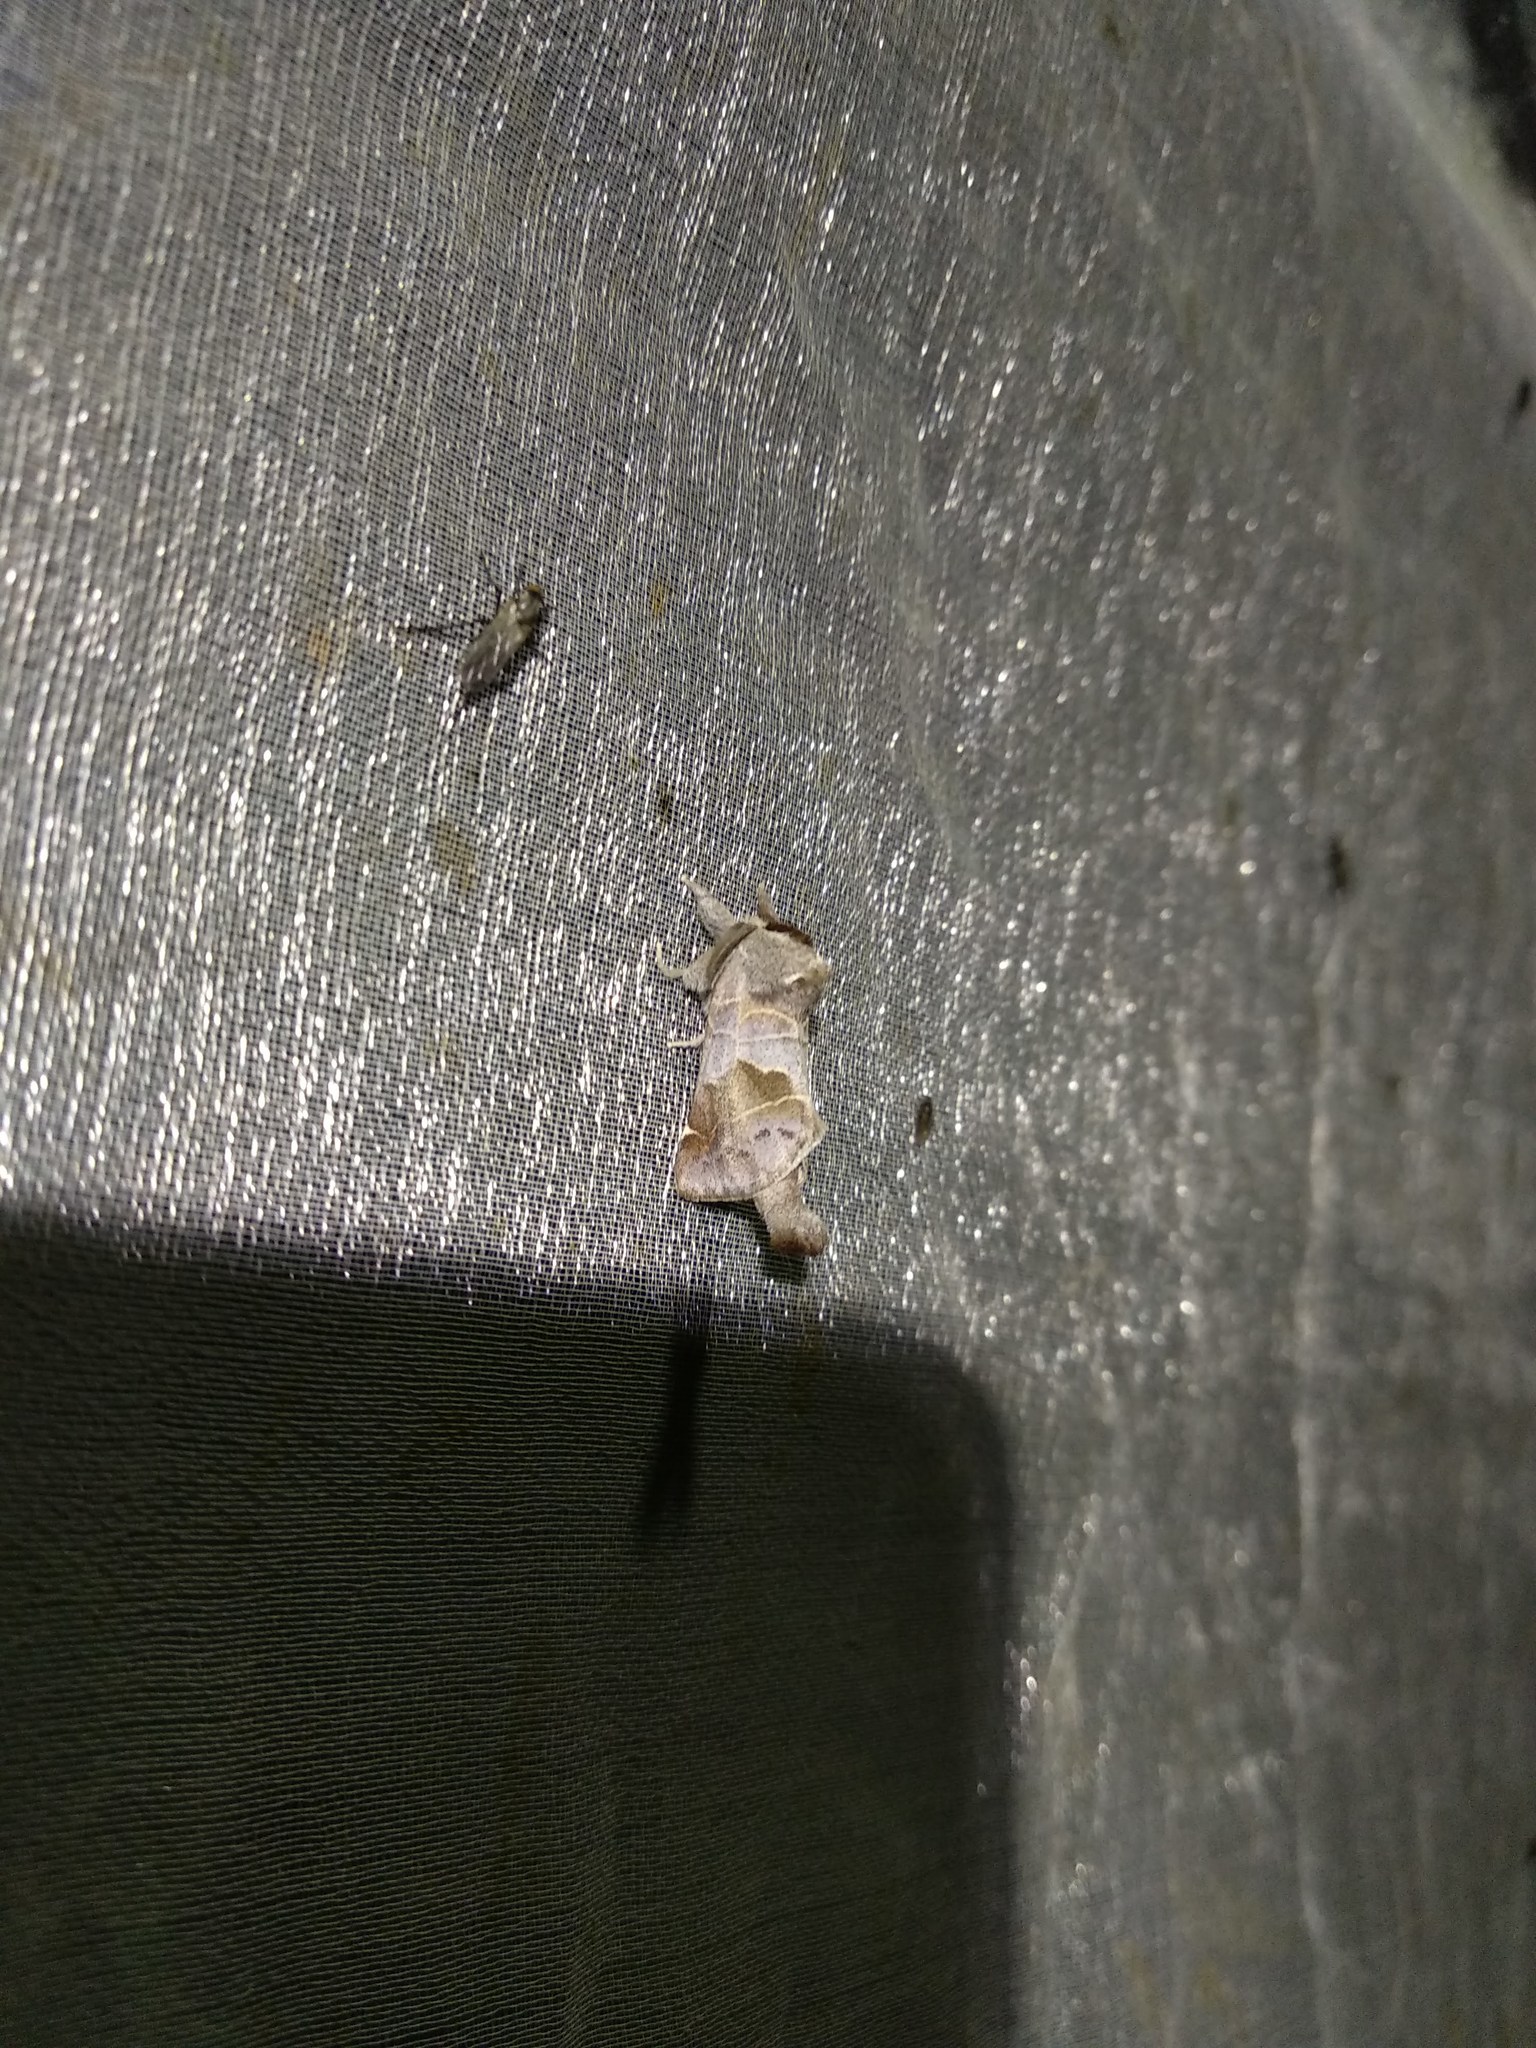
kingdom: Animalia
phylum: Arthropoda
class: Insecta
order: Lepidoptera
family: Notodontidae
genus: Clostera
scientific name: Clostera pigra
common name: Small chocolate-tip
